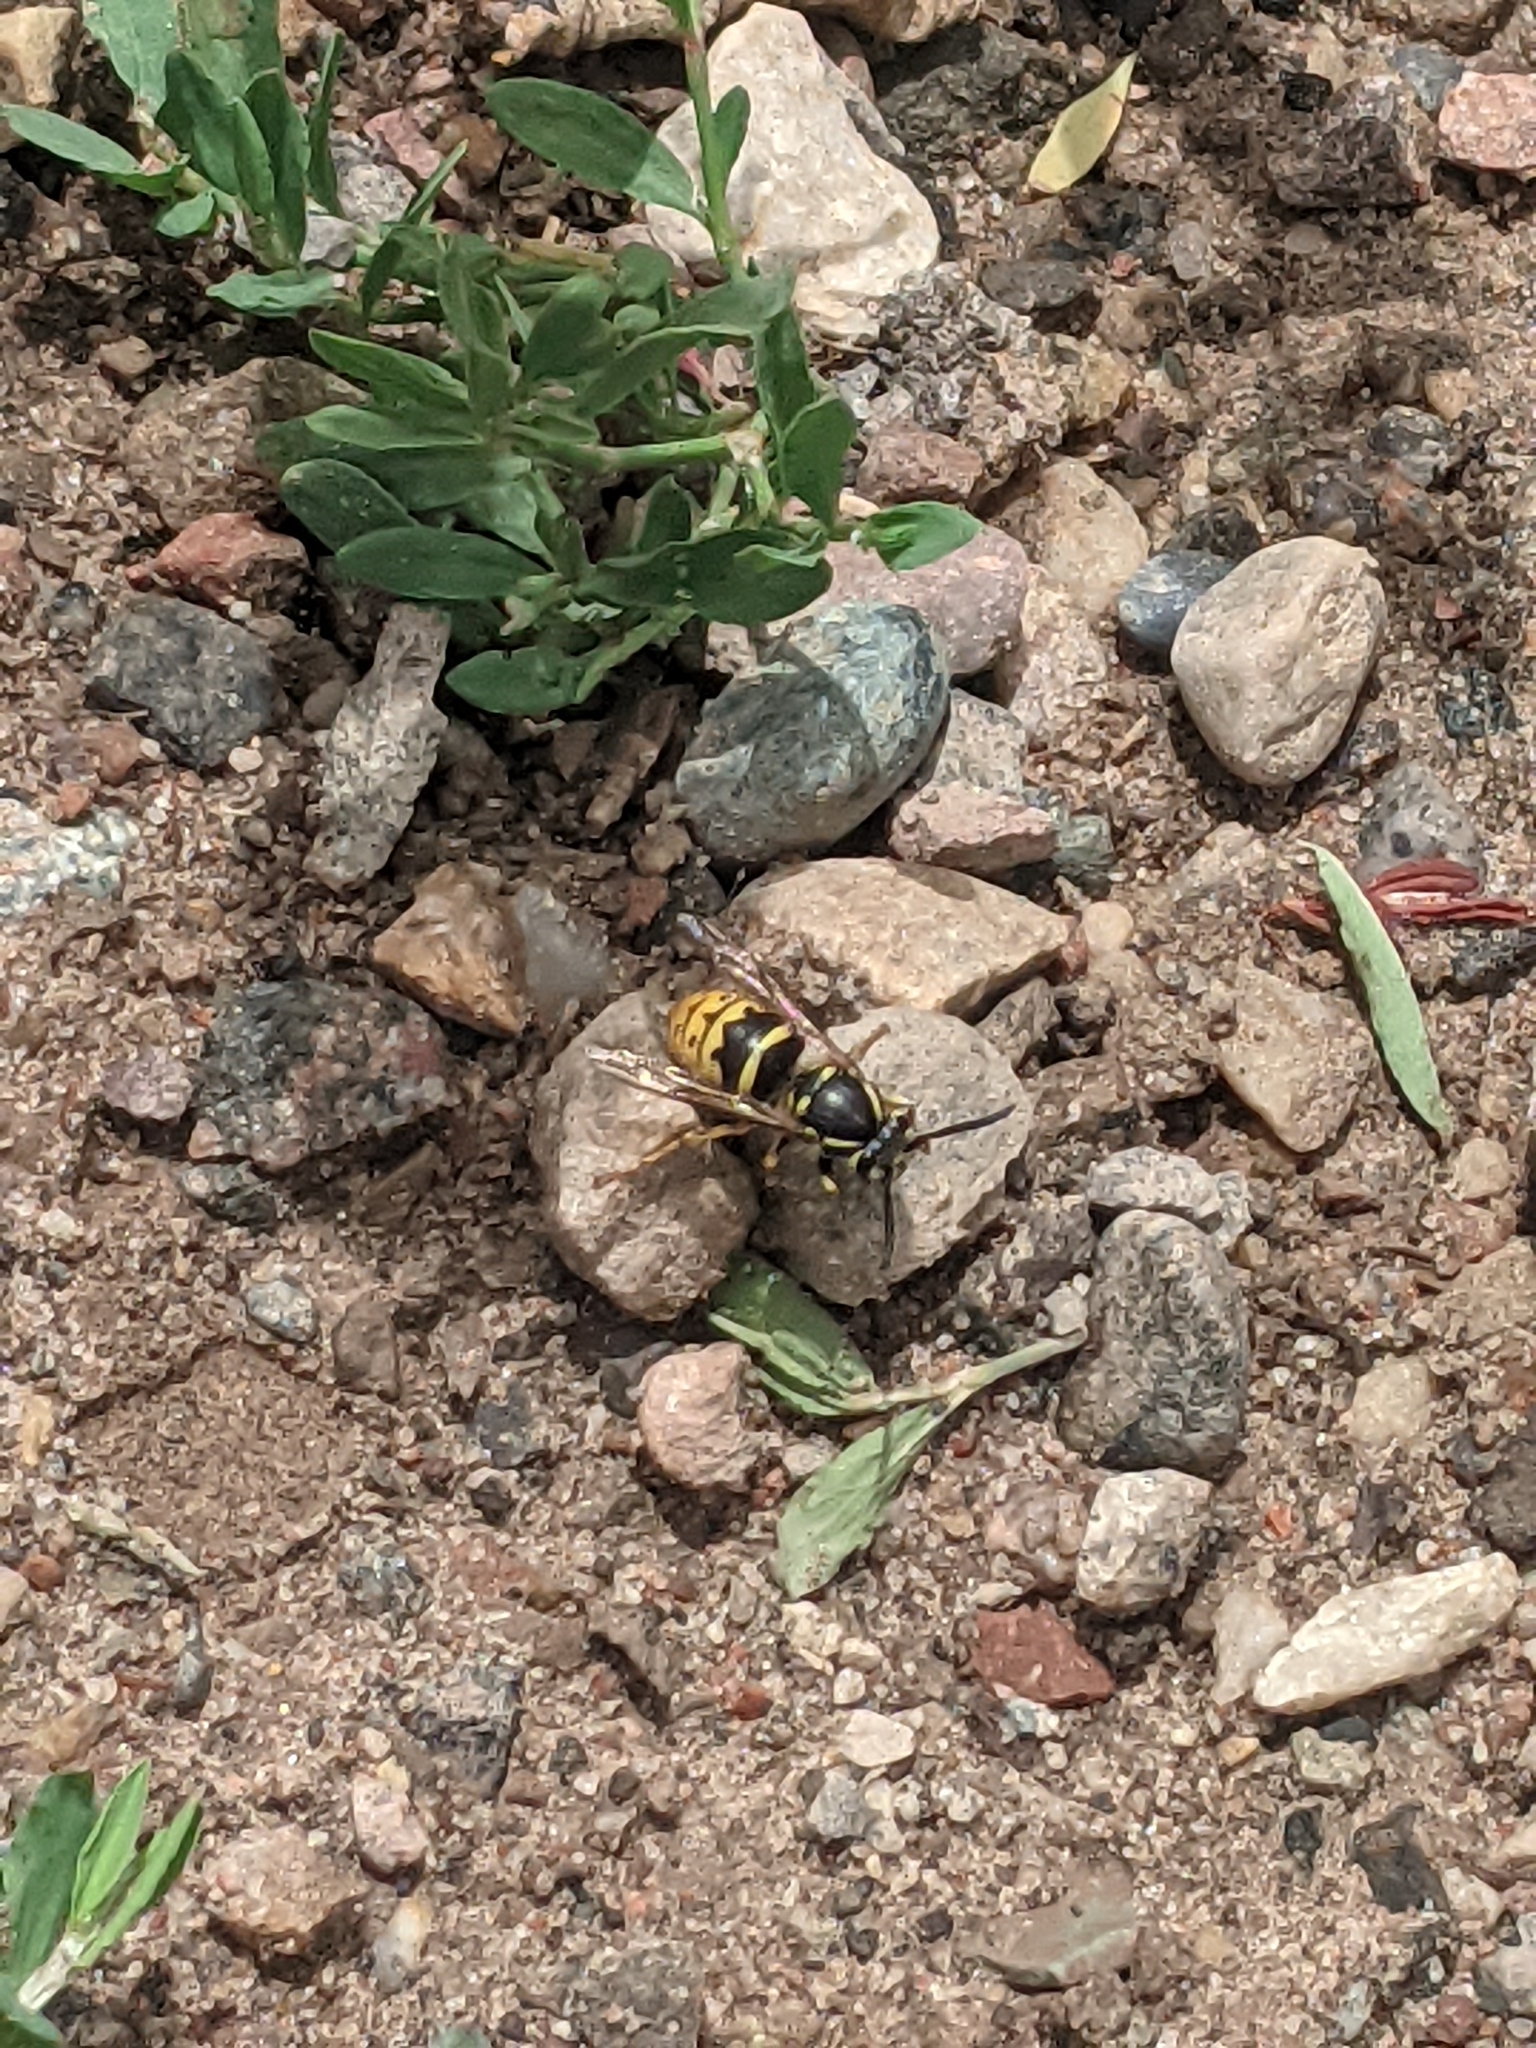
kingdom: Animalia
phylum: Arthropoda
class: Insecta
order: Hymenoptera
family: Vespidae
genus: Vespula
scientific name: Vespula alascensis
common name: Alaska yellowjacket
